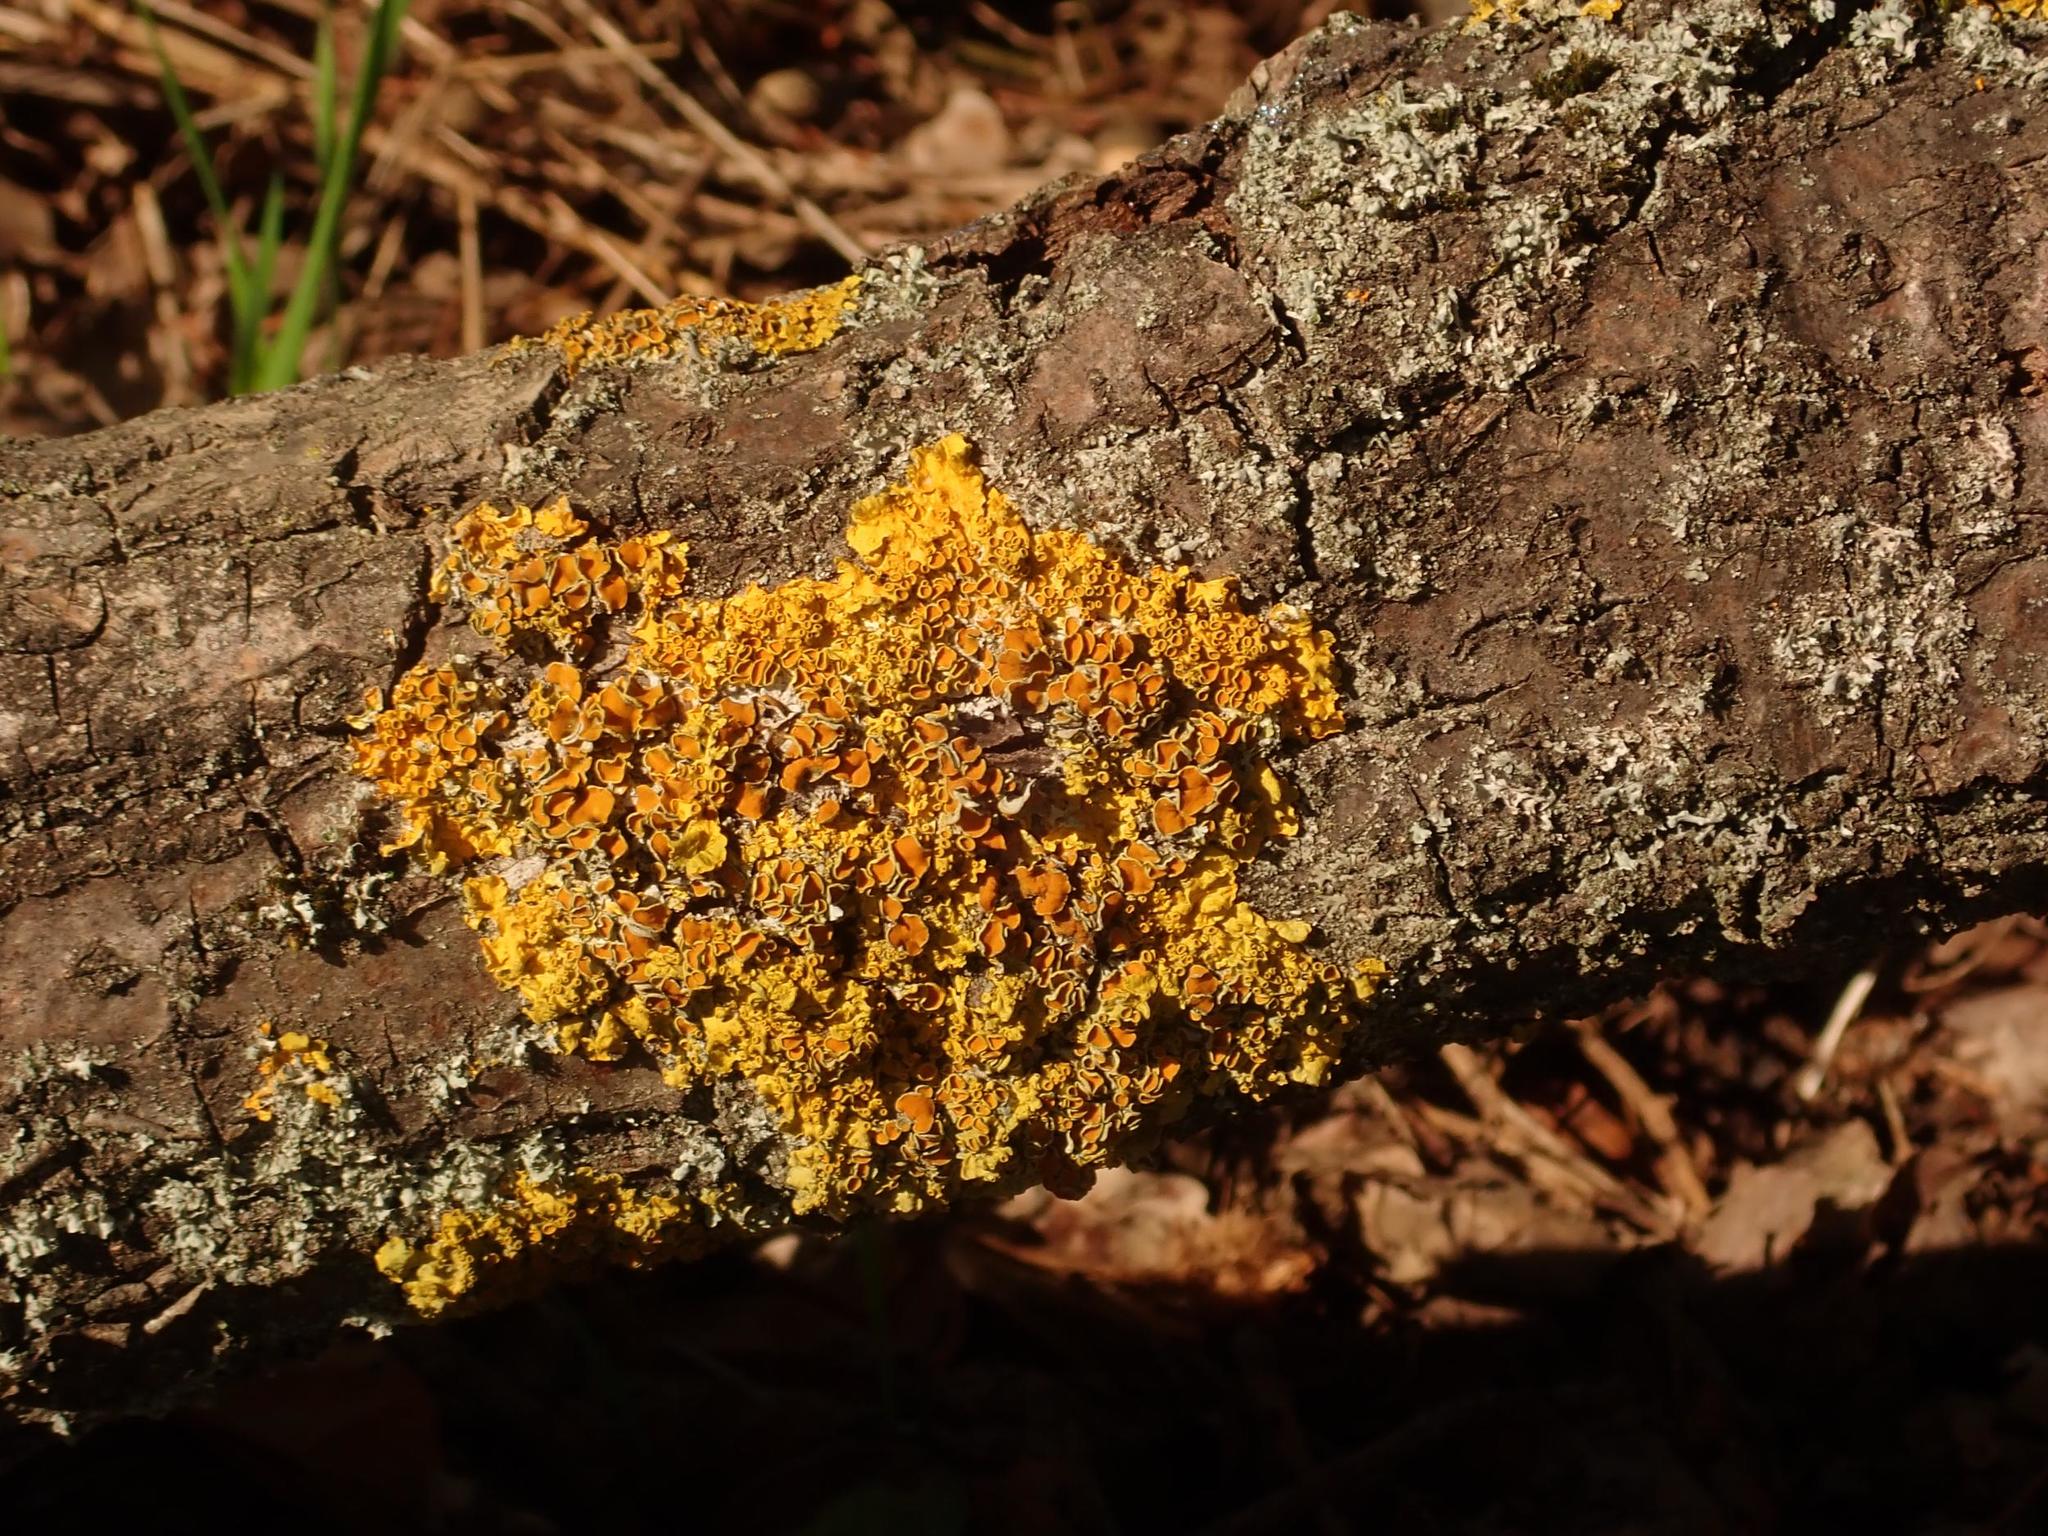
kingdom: Fungi
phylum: Ascomycota
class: Lecanoromycetes
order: Teloschistales
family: Teloschistaceae
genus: Xanthoria
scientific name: Xanthoria parietina
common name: Common orange lichen
